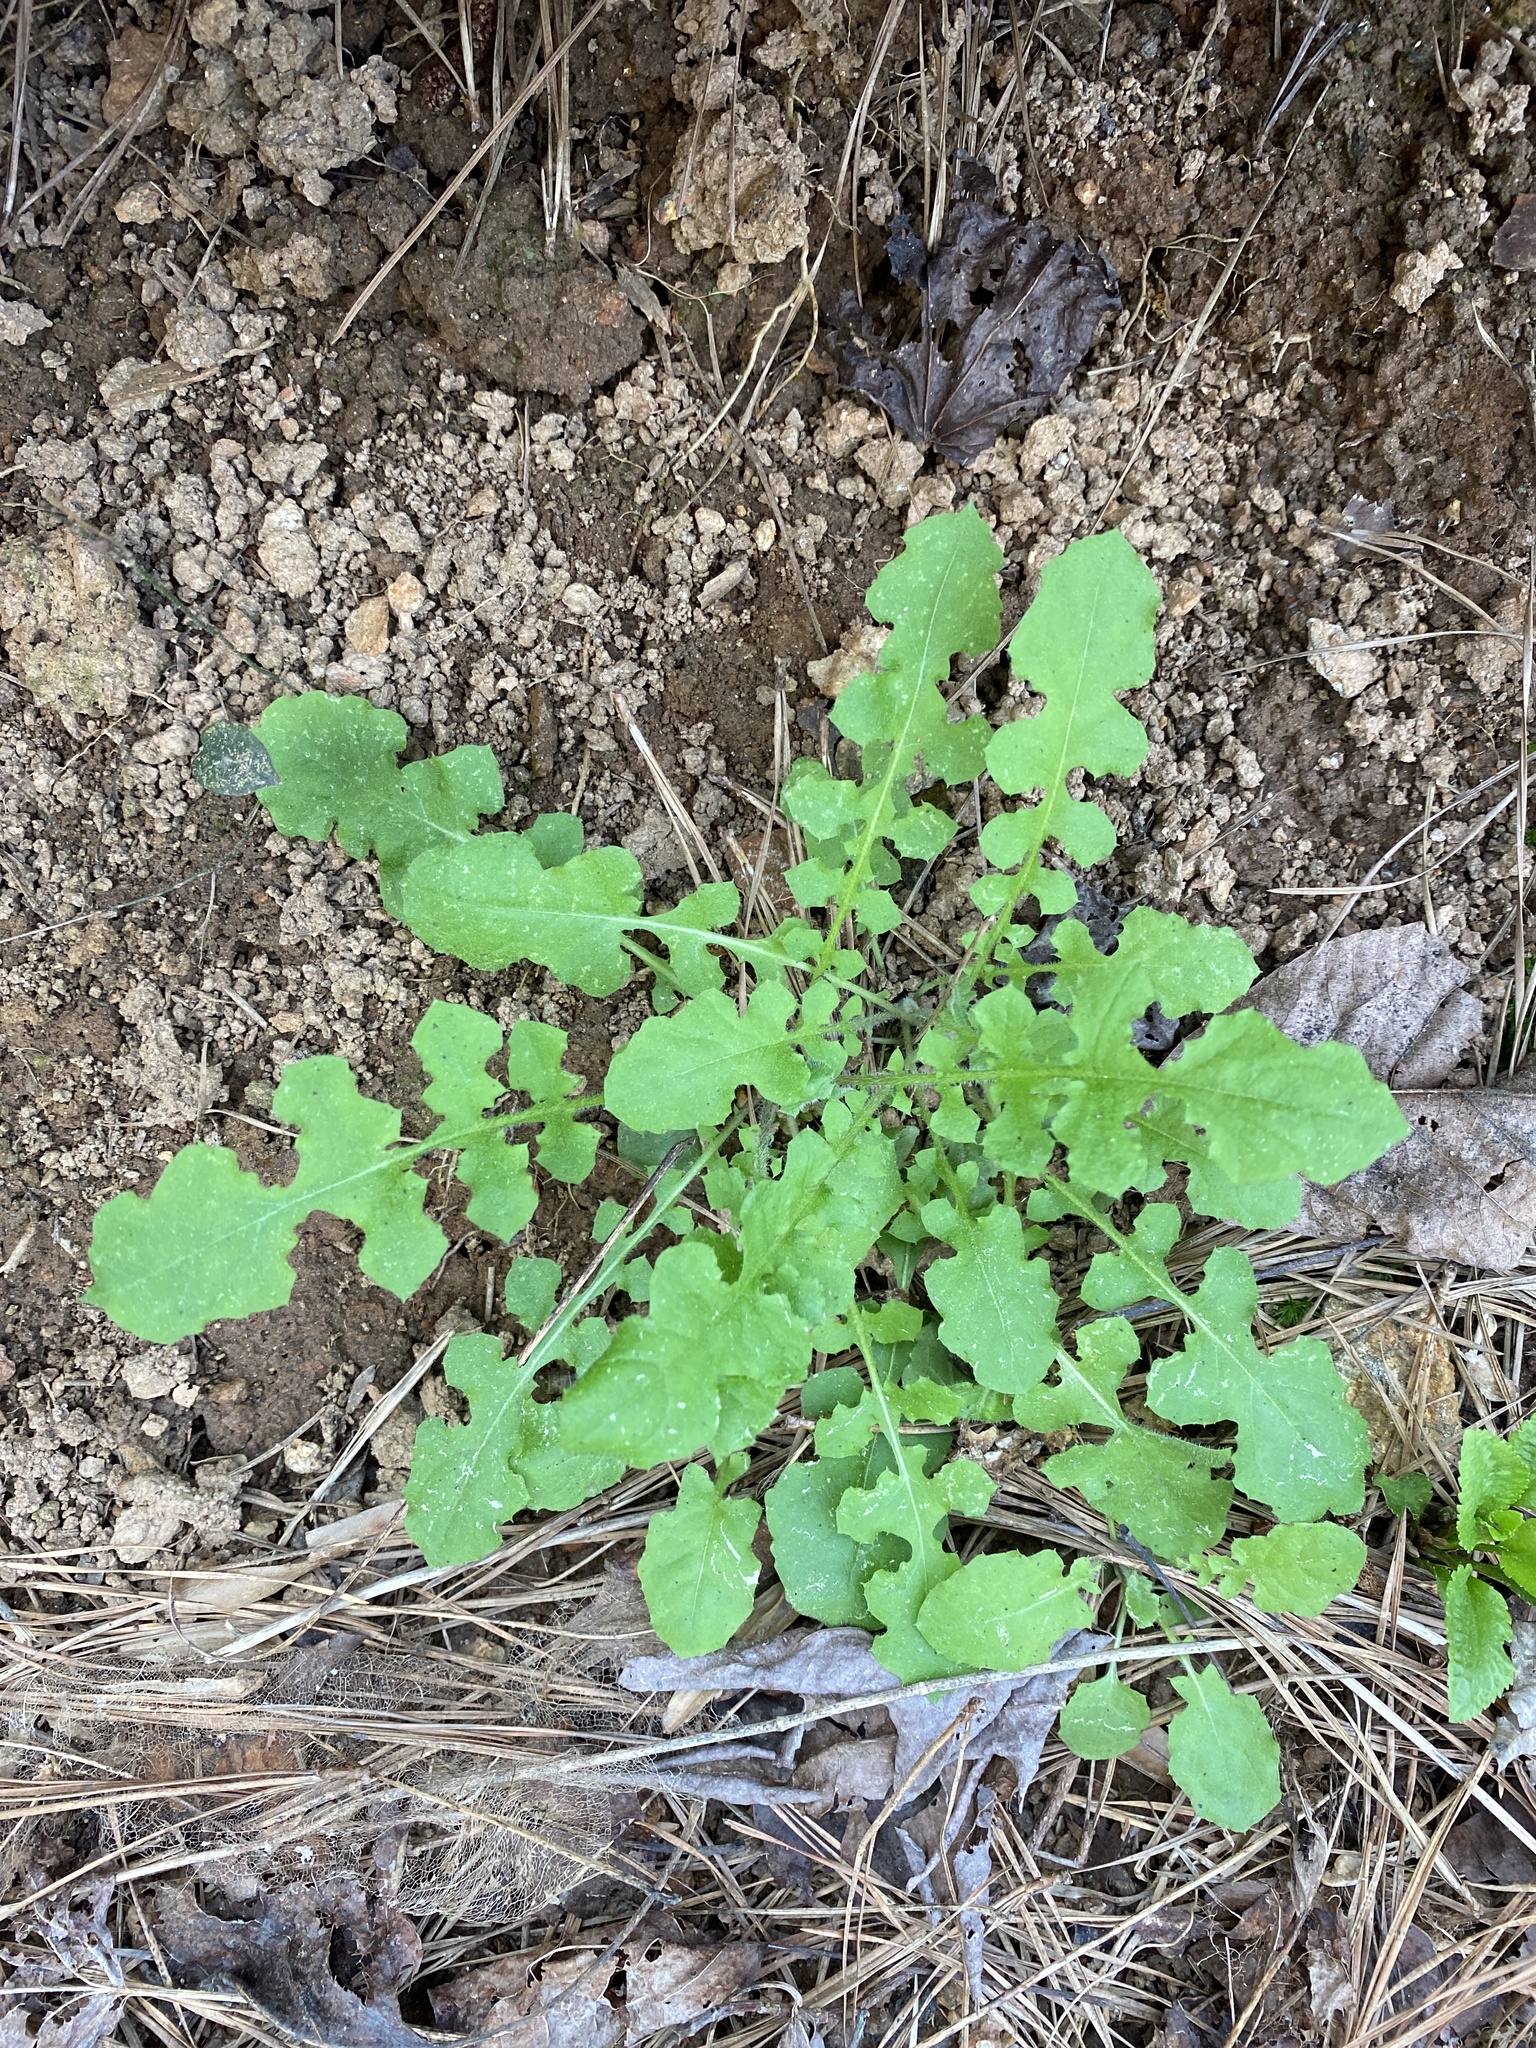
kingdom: Plantae
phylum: Tracheophyta
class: Magnoliopsida
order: Asterales
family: Asteraceae
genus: Youngia
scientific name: Youngia japonica
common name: Oriental false hawksbeard
